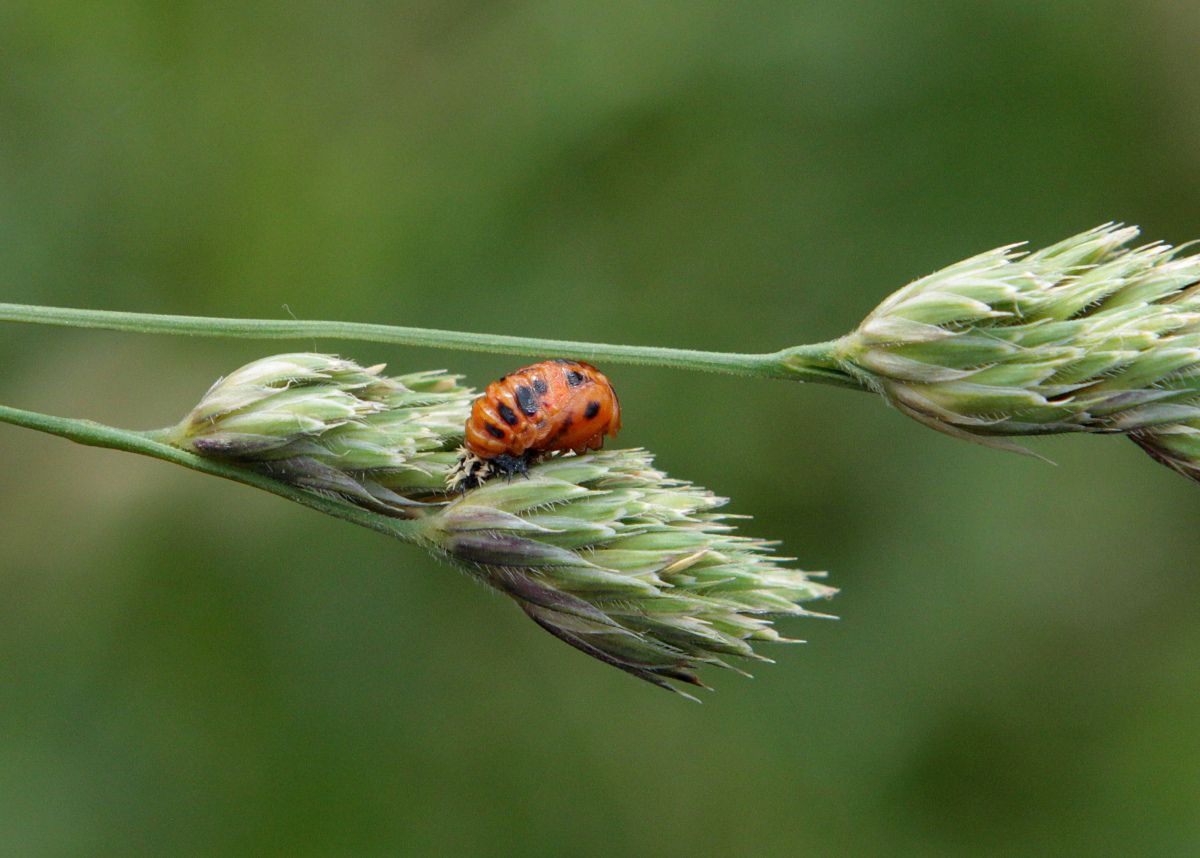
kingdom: Animalia
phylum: Arthropoda
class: Insecta
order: Coleoptera
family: Coccinellidae
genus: Harmonia
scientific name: Harmonia axyridis
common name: Harlequin ladybird
